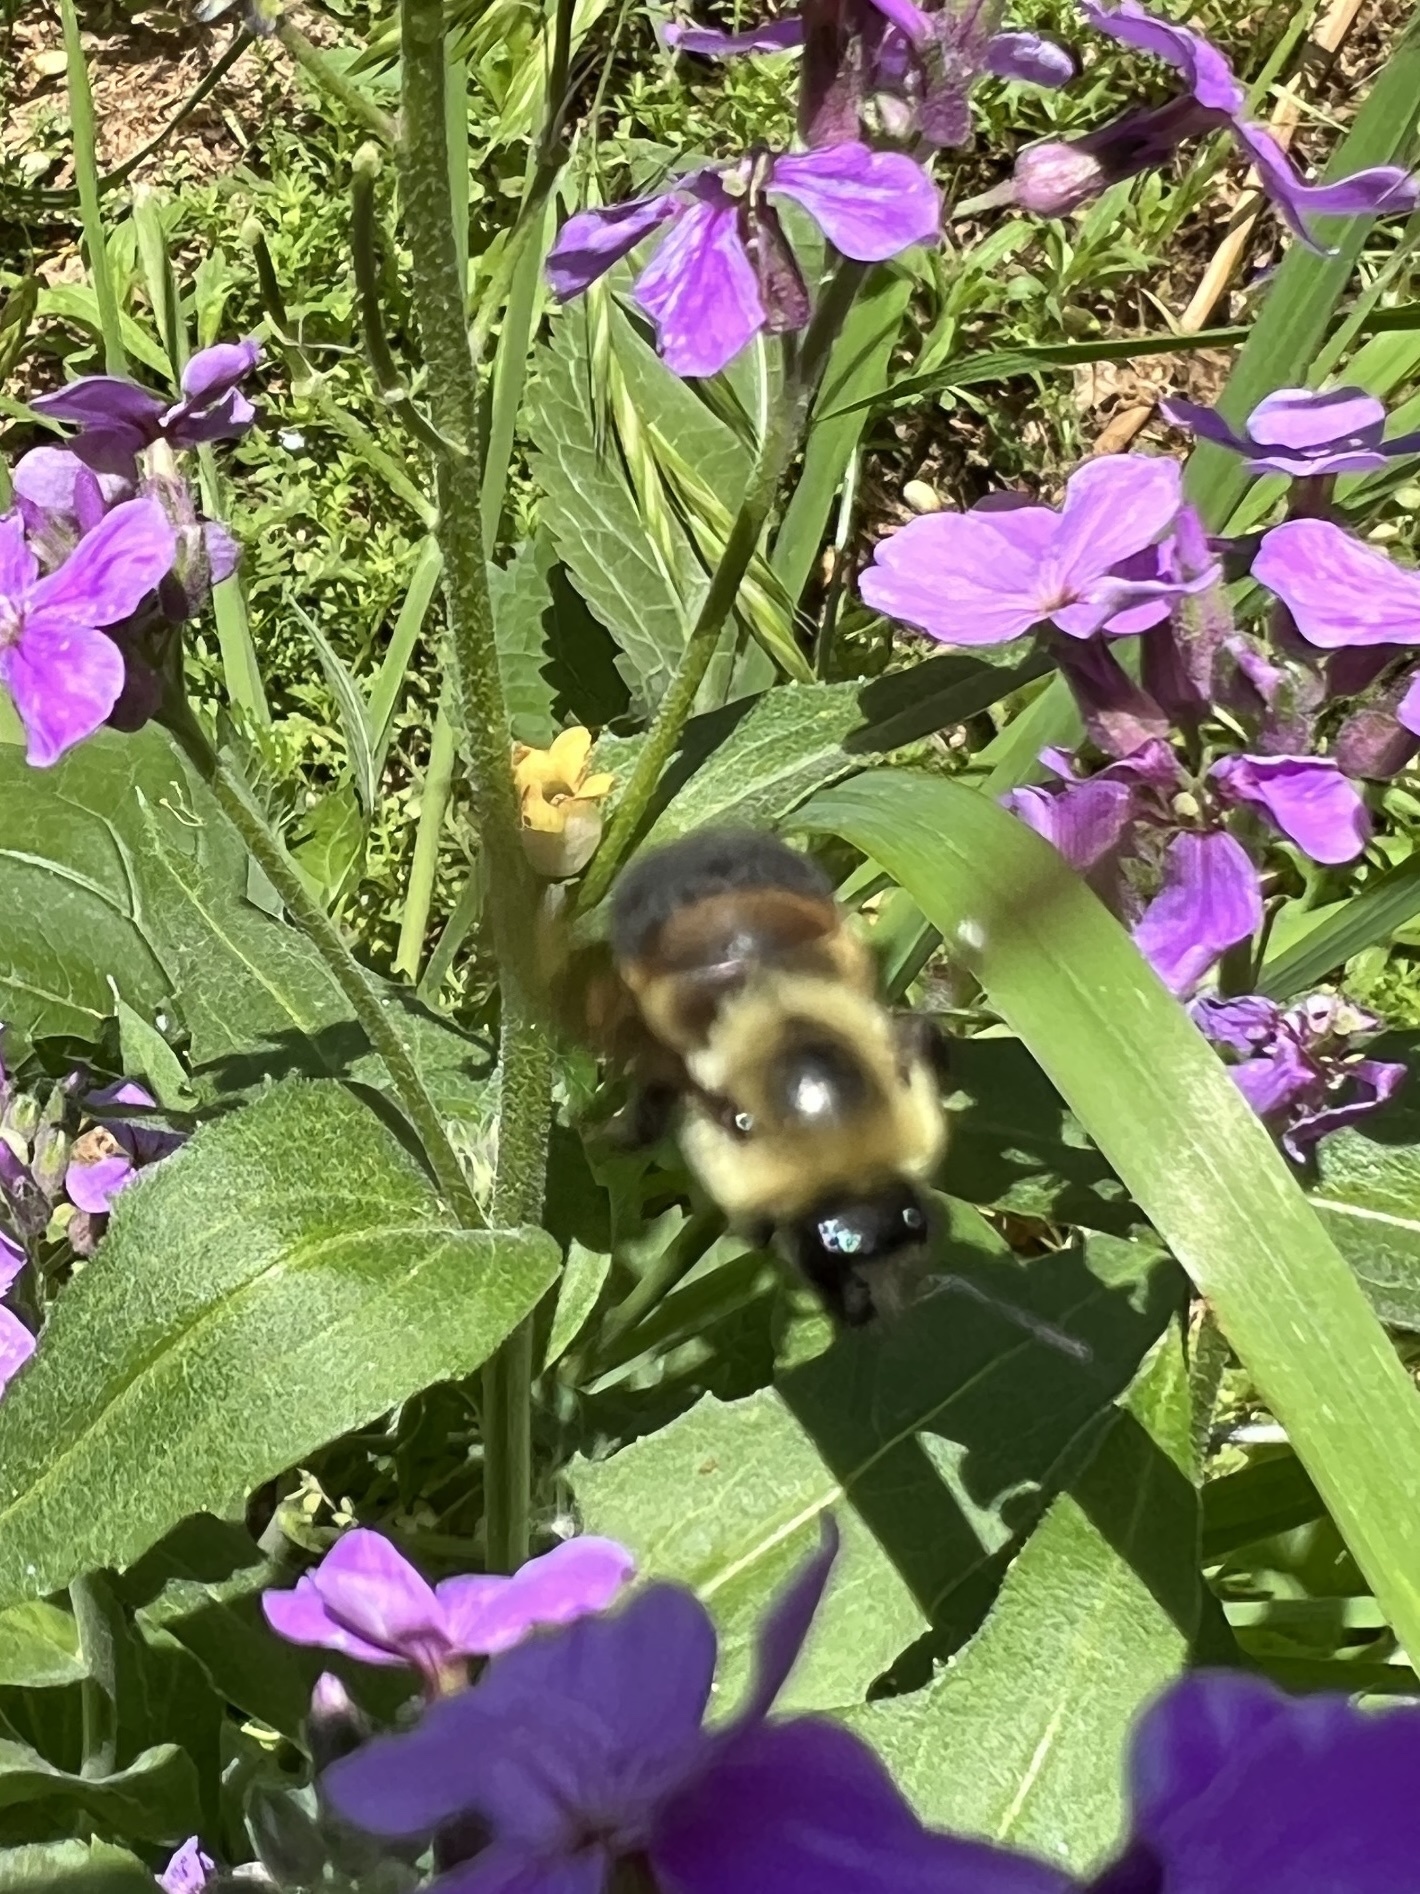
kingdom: Animalia
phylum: Arthropoda
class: Insecta
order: Hymenoptera
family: Apidae
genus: Bombus
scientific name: Bombus griseocollis
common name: Brown-belted bumble bee
